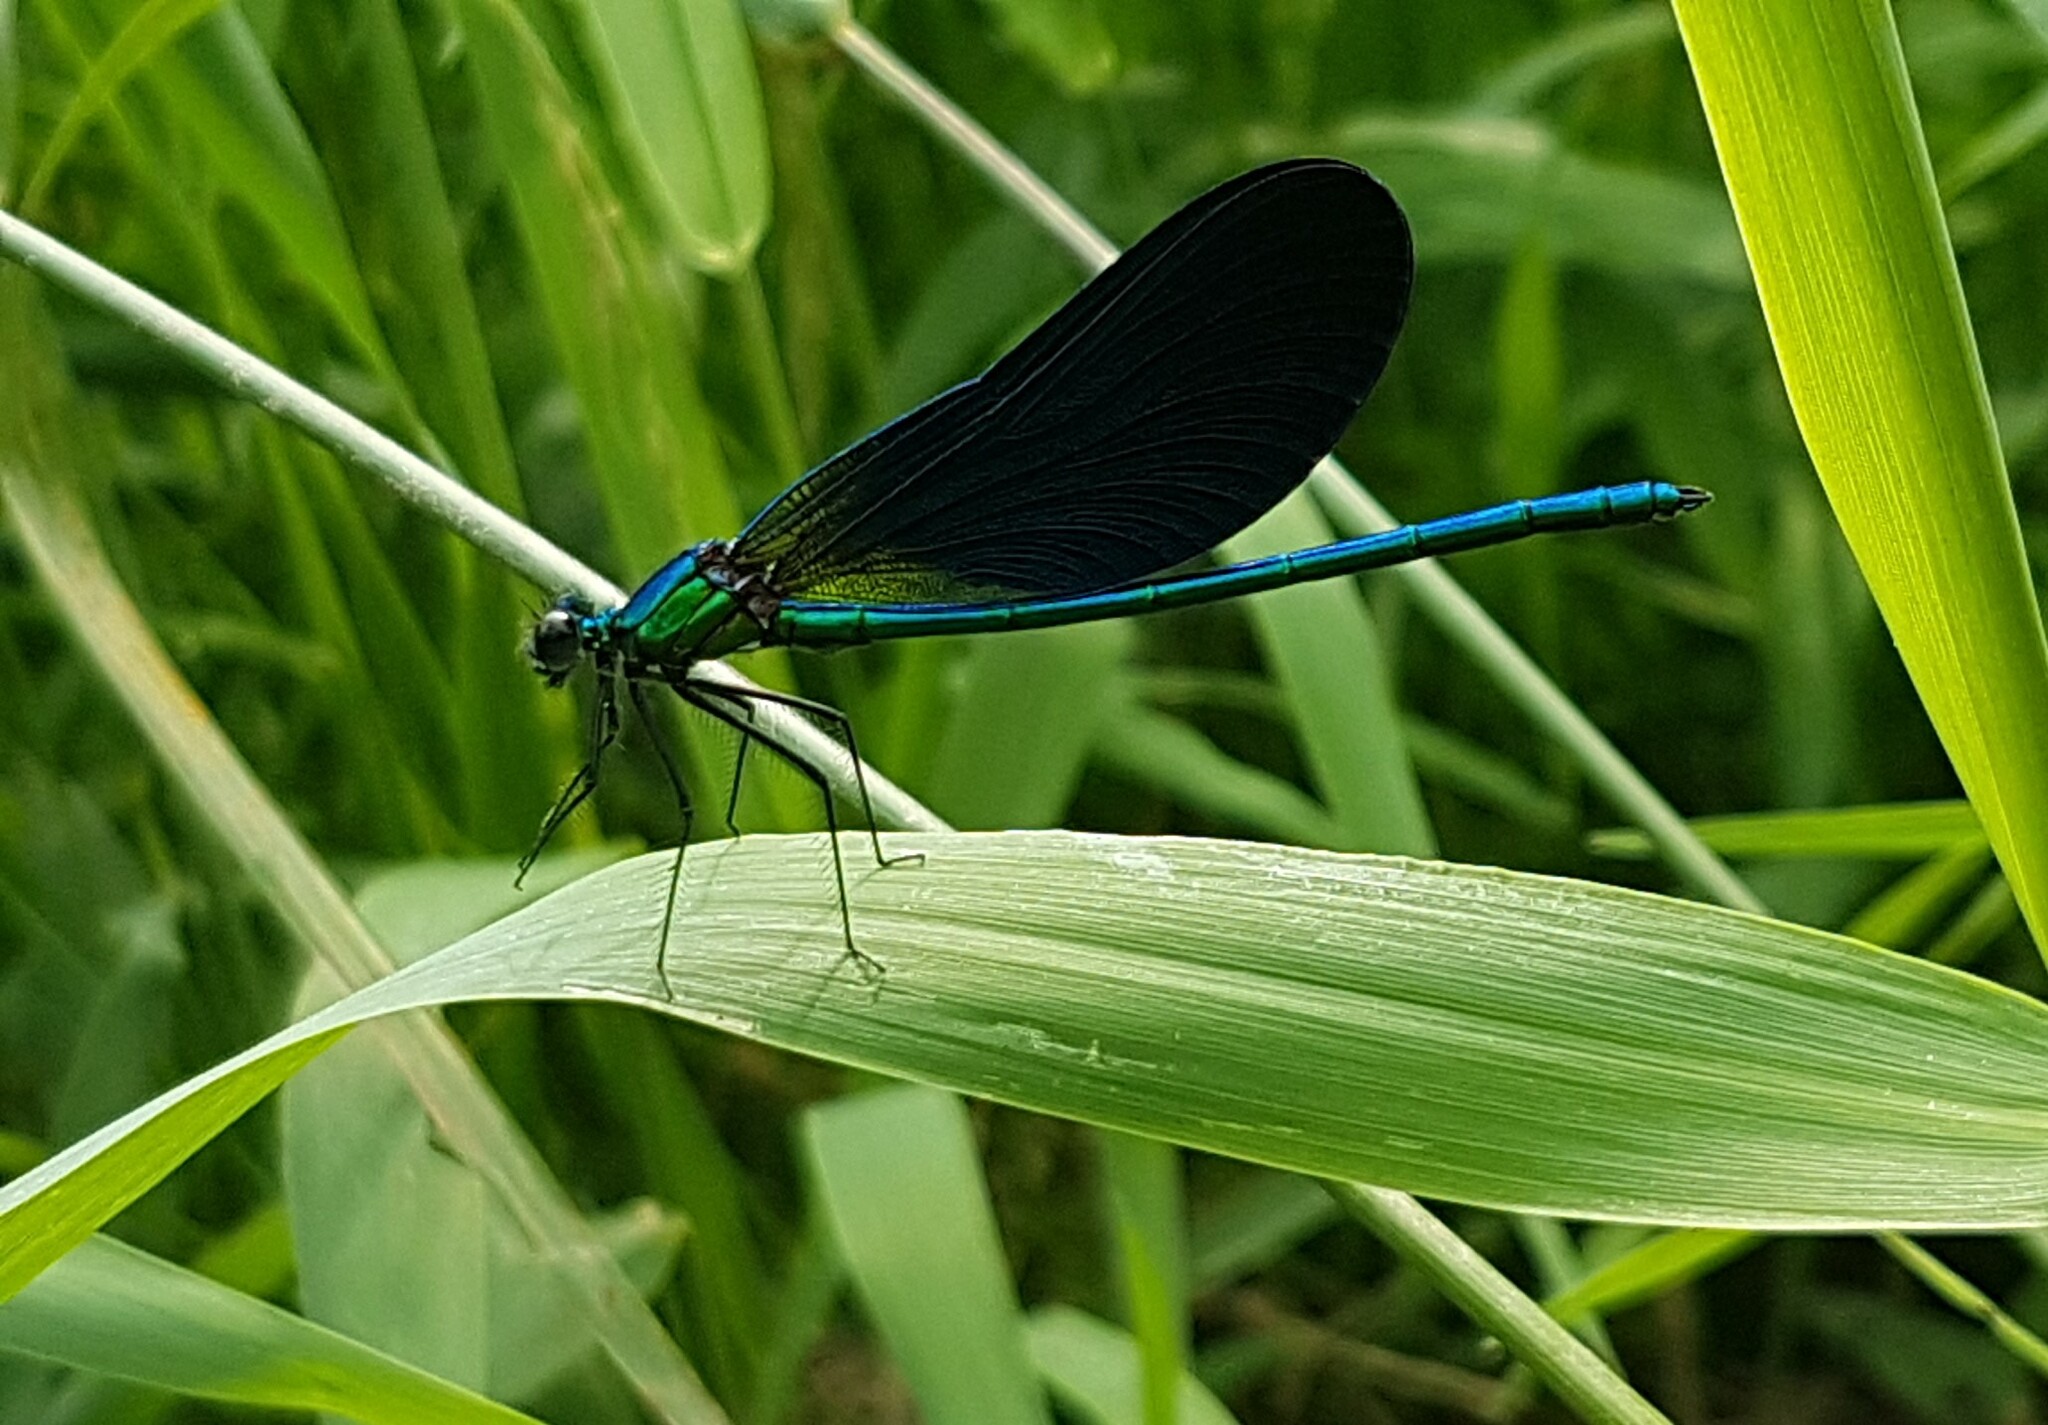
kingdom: Animalia
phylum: Arthropoda
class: Insecta
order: Odonata
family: Calopterygidae
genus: Calopteryx
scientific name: Calopteryx virgo
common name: Beautiful demoiselle
